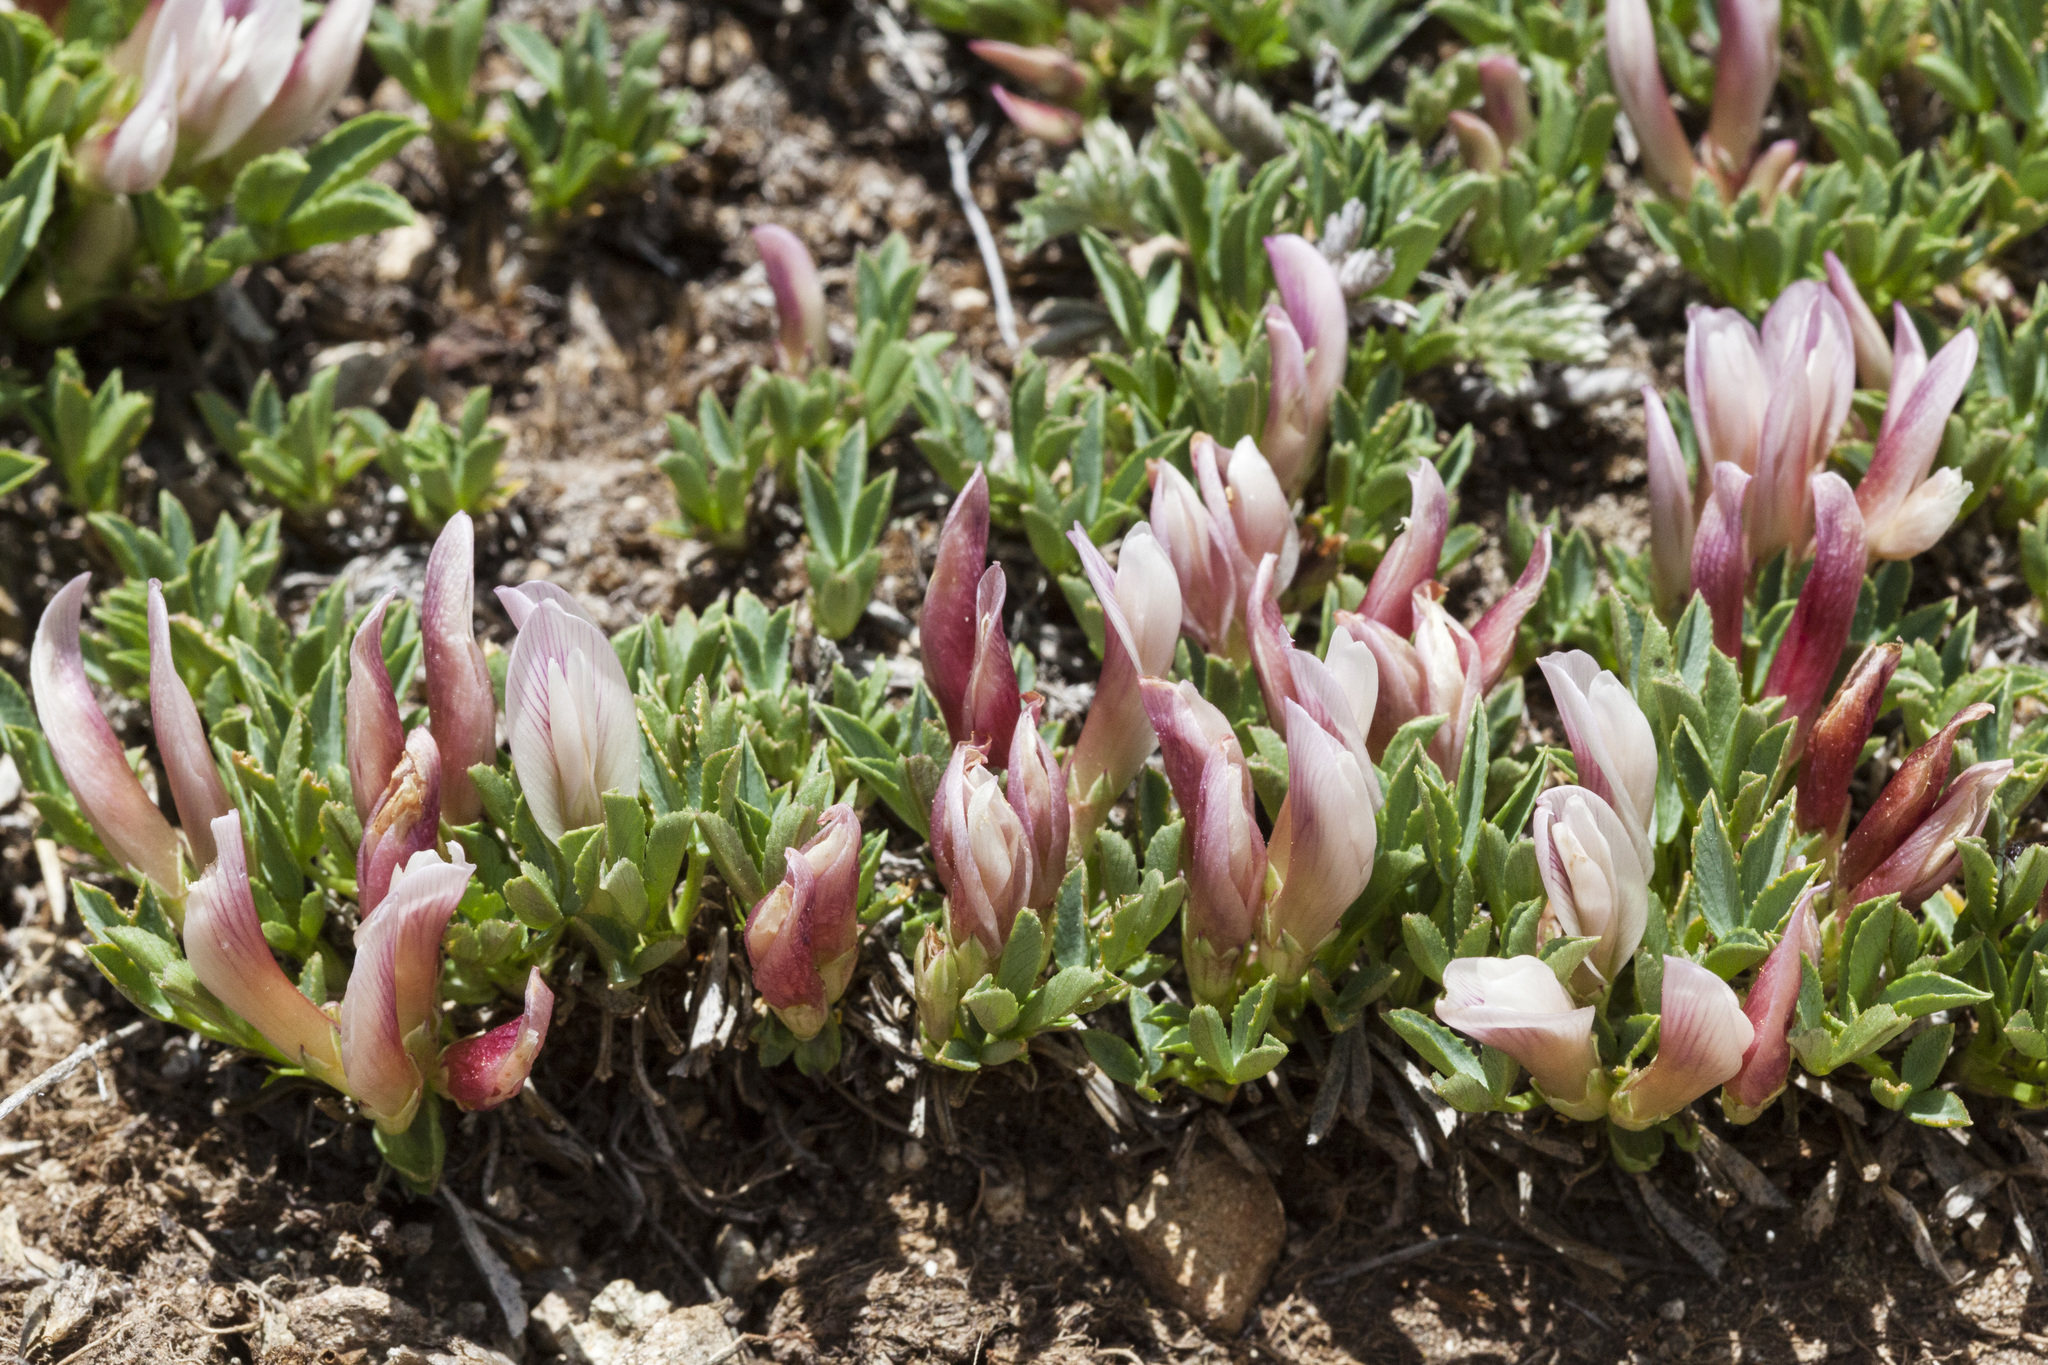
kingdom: Plantae
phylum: Tracheophyta
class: Magnoliopsida
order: Fabales
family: Fabaceae
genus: Trifolium
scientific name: Trifolium nanum
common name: Tundra clover
